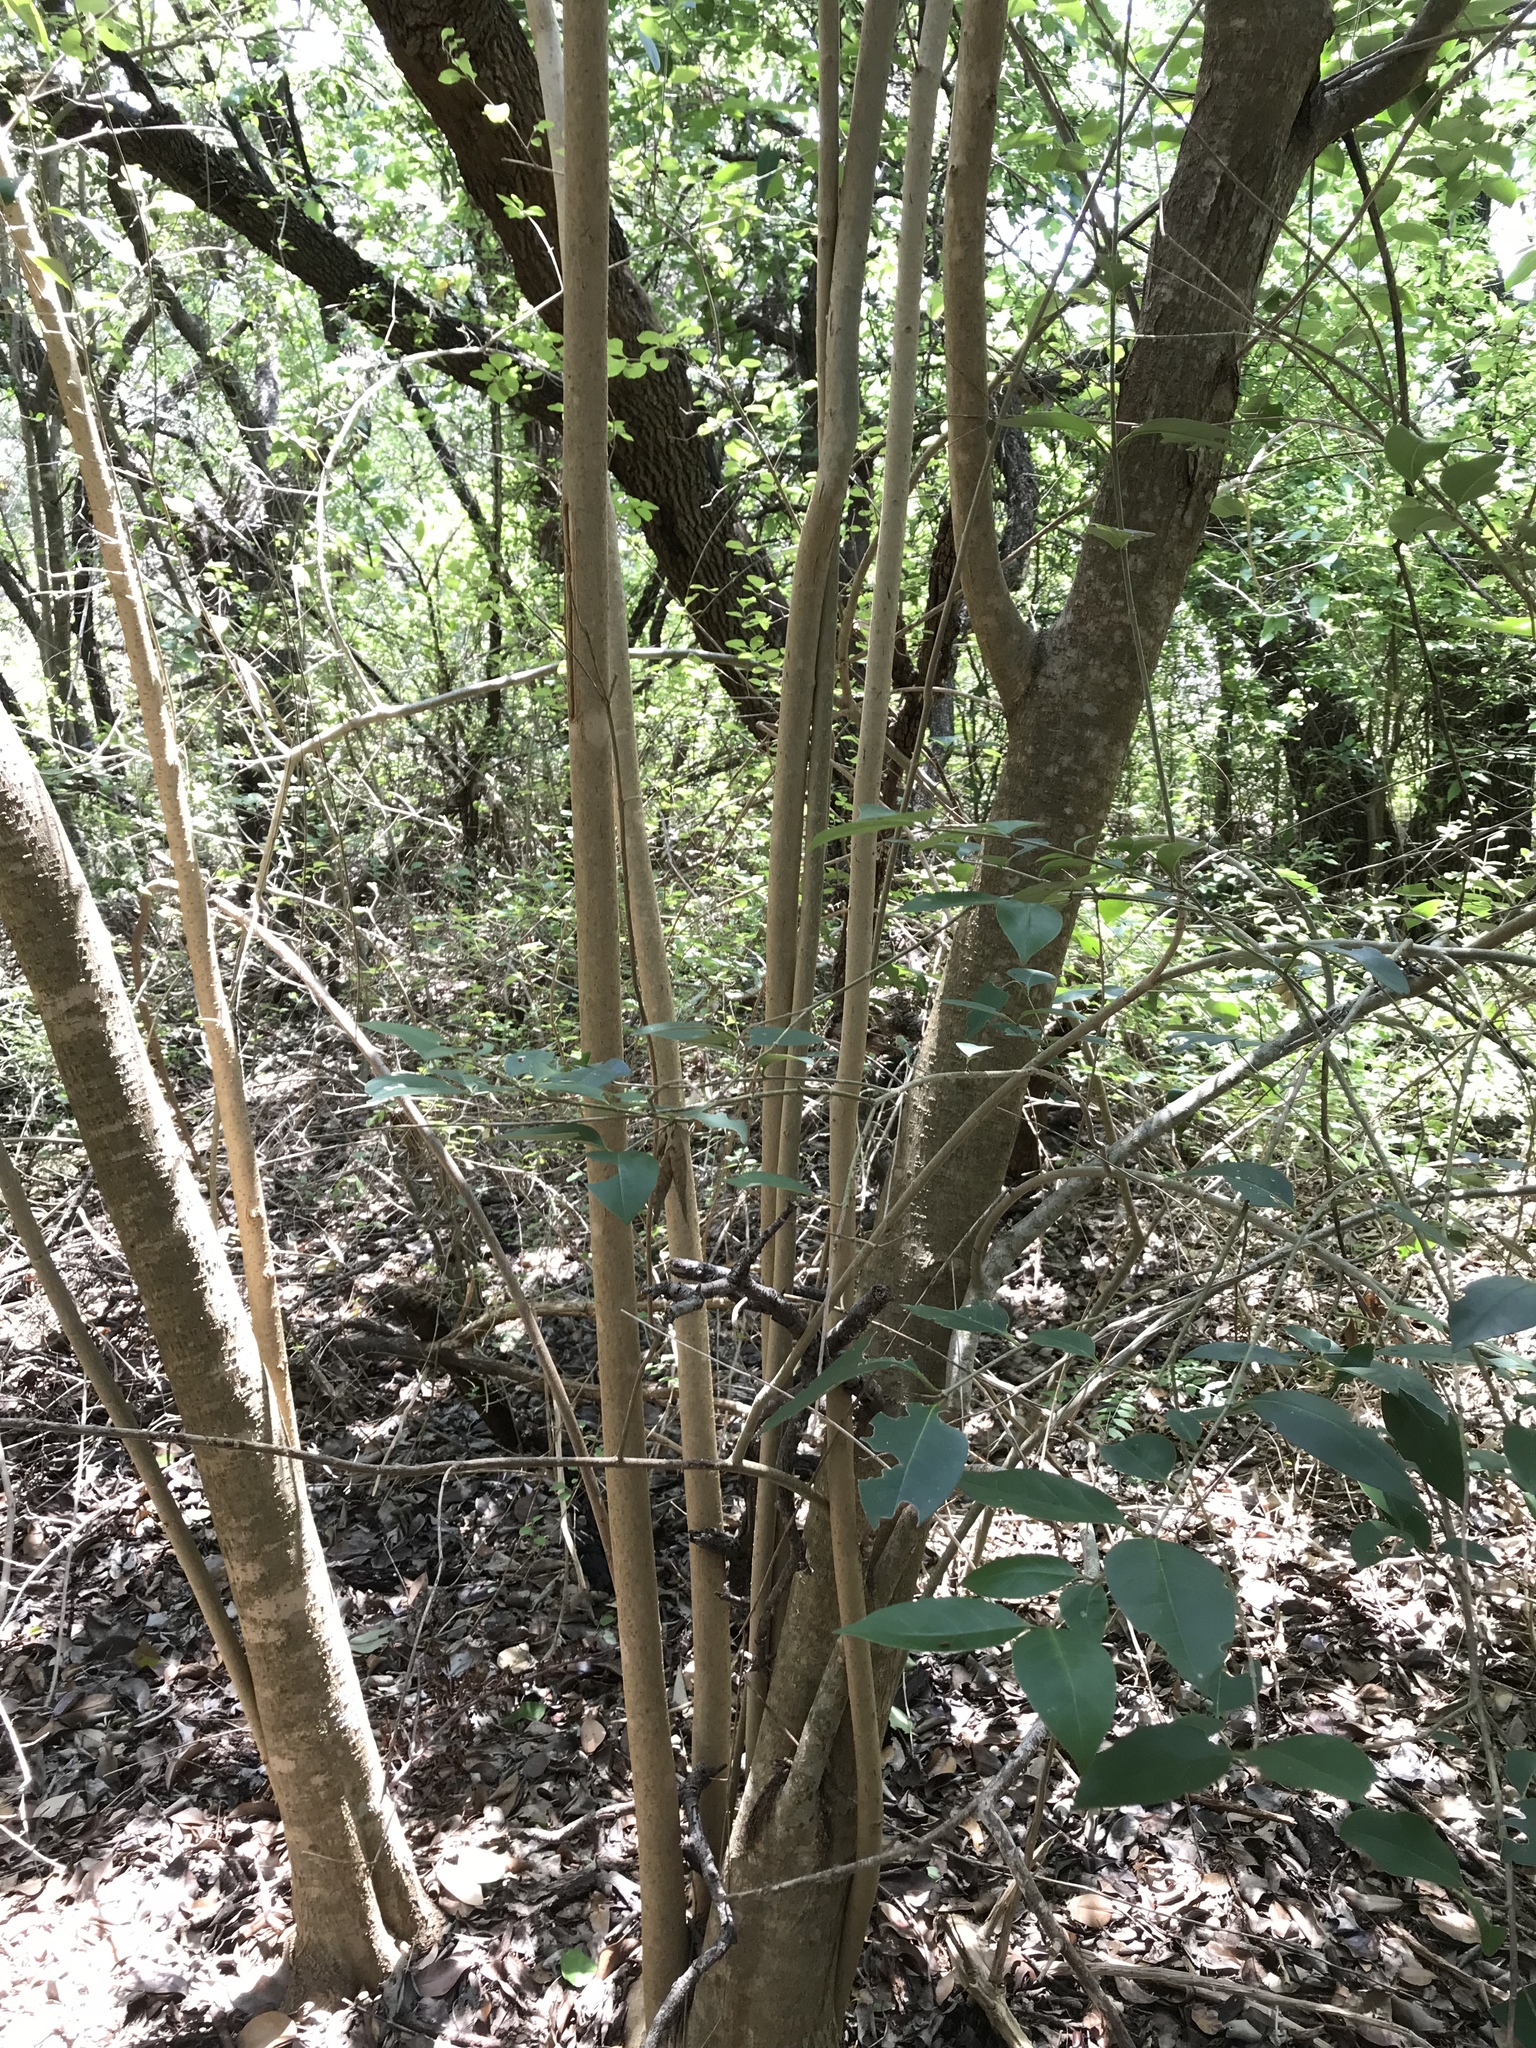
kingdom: Plantae
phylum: Tracheophyta
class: Magnoliopsida
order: Lamiales
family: Oleaceae
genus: Ligustrum
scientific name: Ligustrum lucidum
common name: Glossy privet
